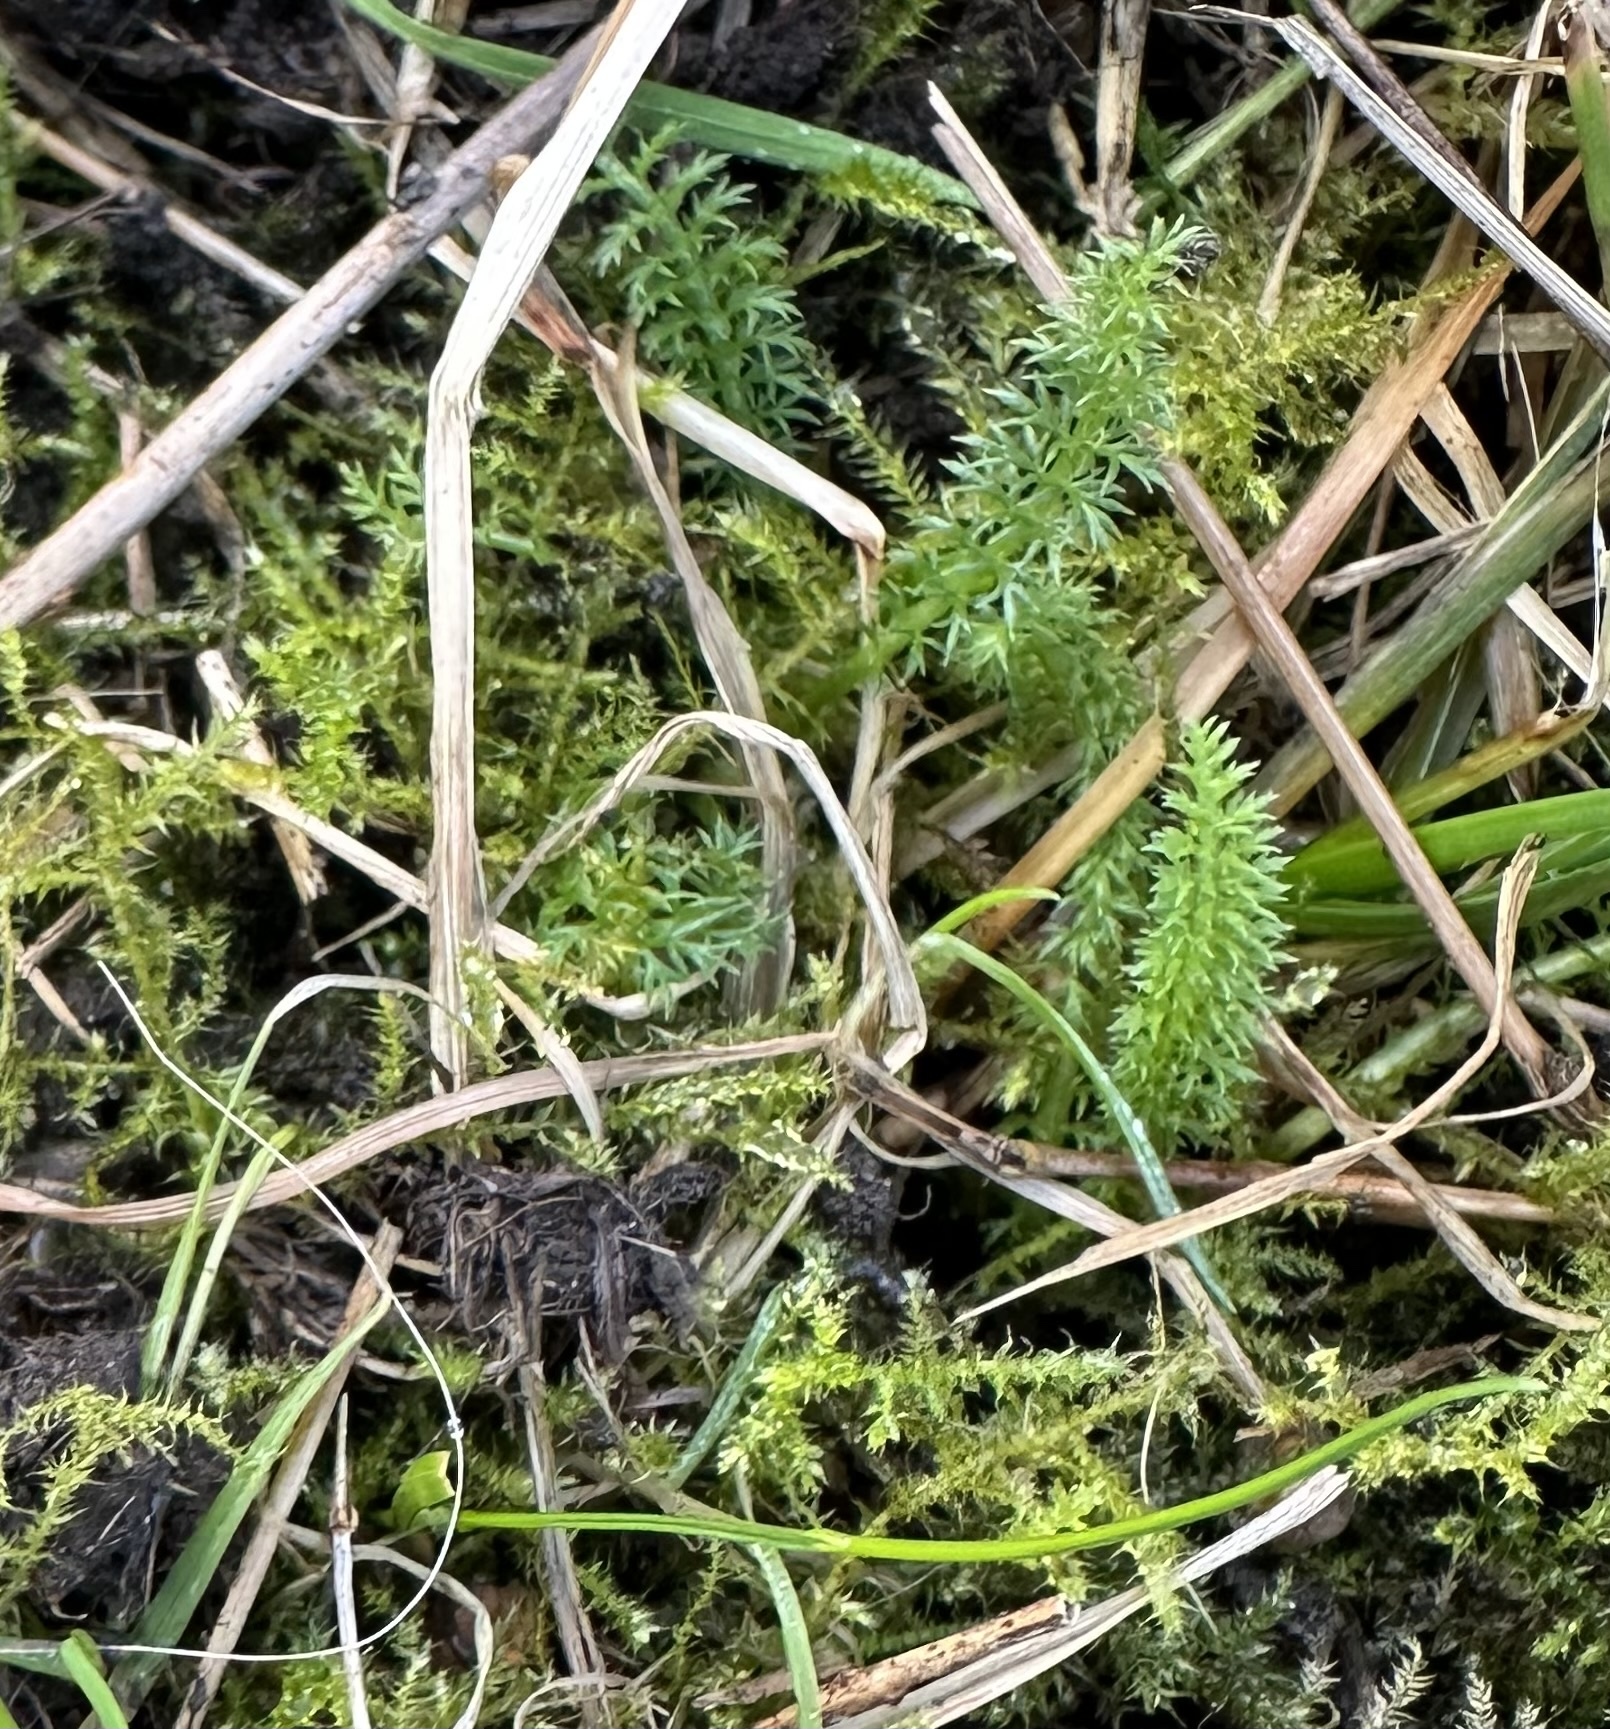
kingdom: Plantae
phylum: Tracheophyta
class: Magnoliopsida
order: Asterales
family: Asteraceae
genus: Achillea
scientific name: Achillea millefolium
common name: Yarrow
